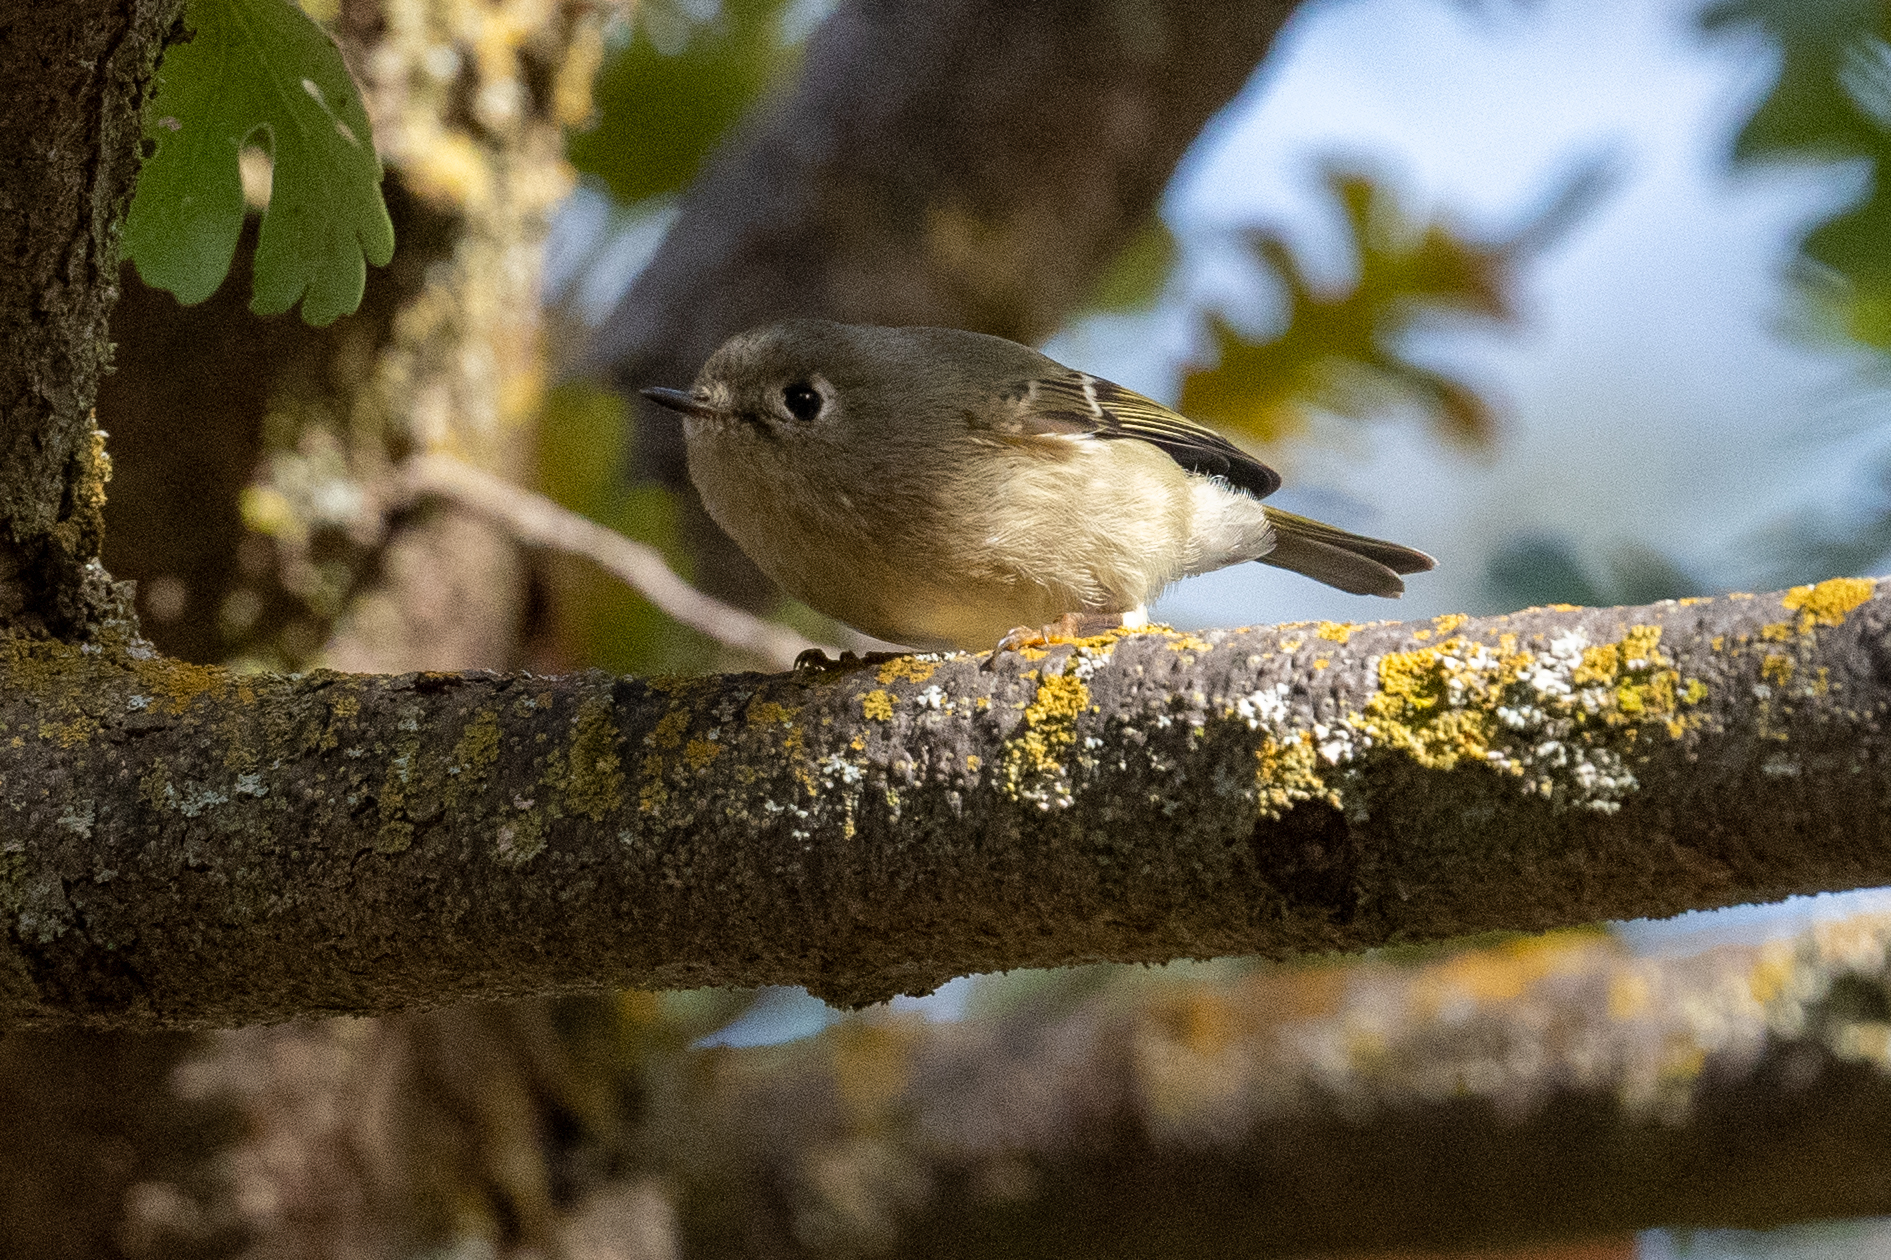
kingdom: Animalia
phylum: Chordata
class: Aves
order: Passeriformes
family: Regulidae
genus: Regulus
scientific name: Regulus calendula
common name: Ruby-crowned kinglet
